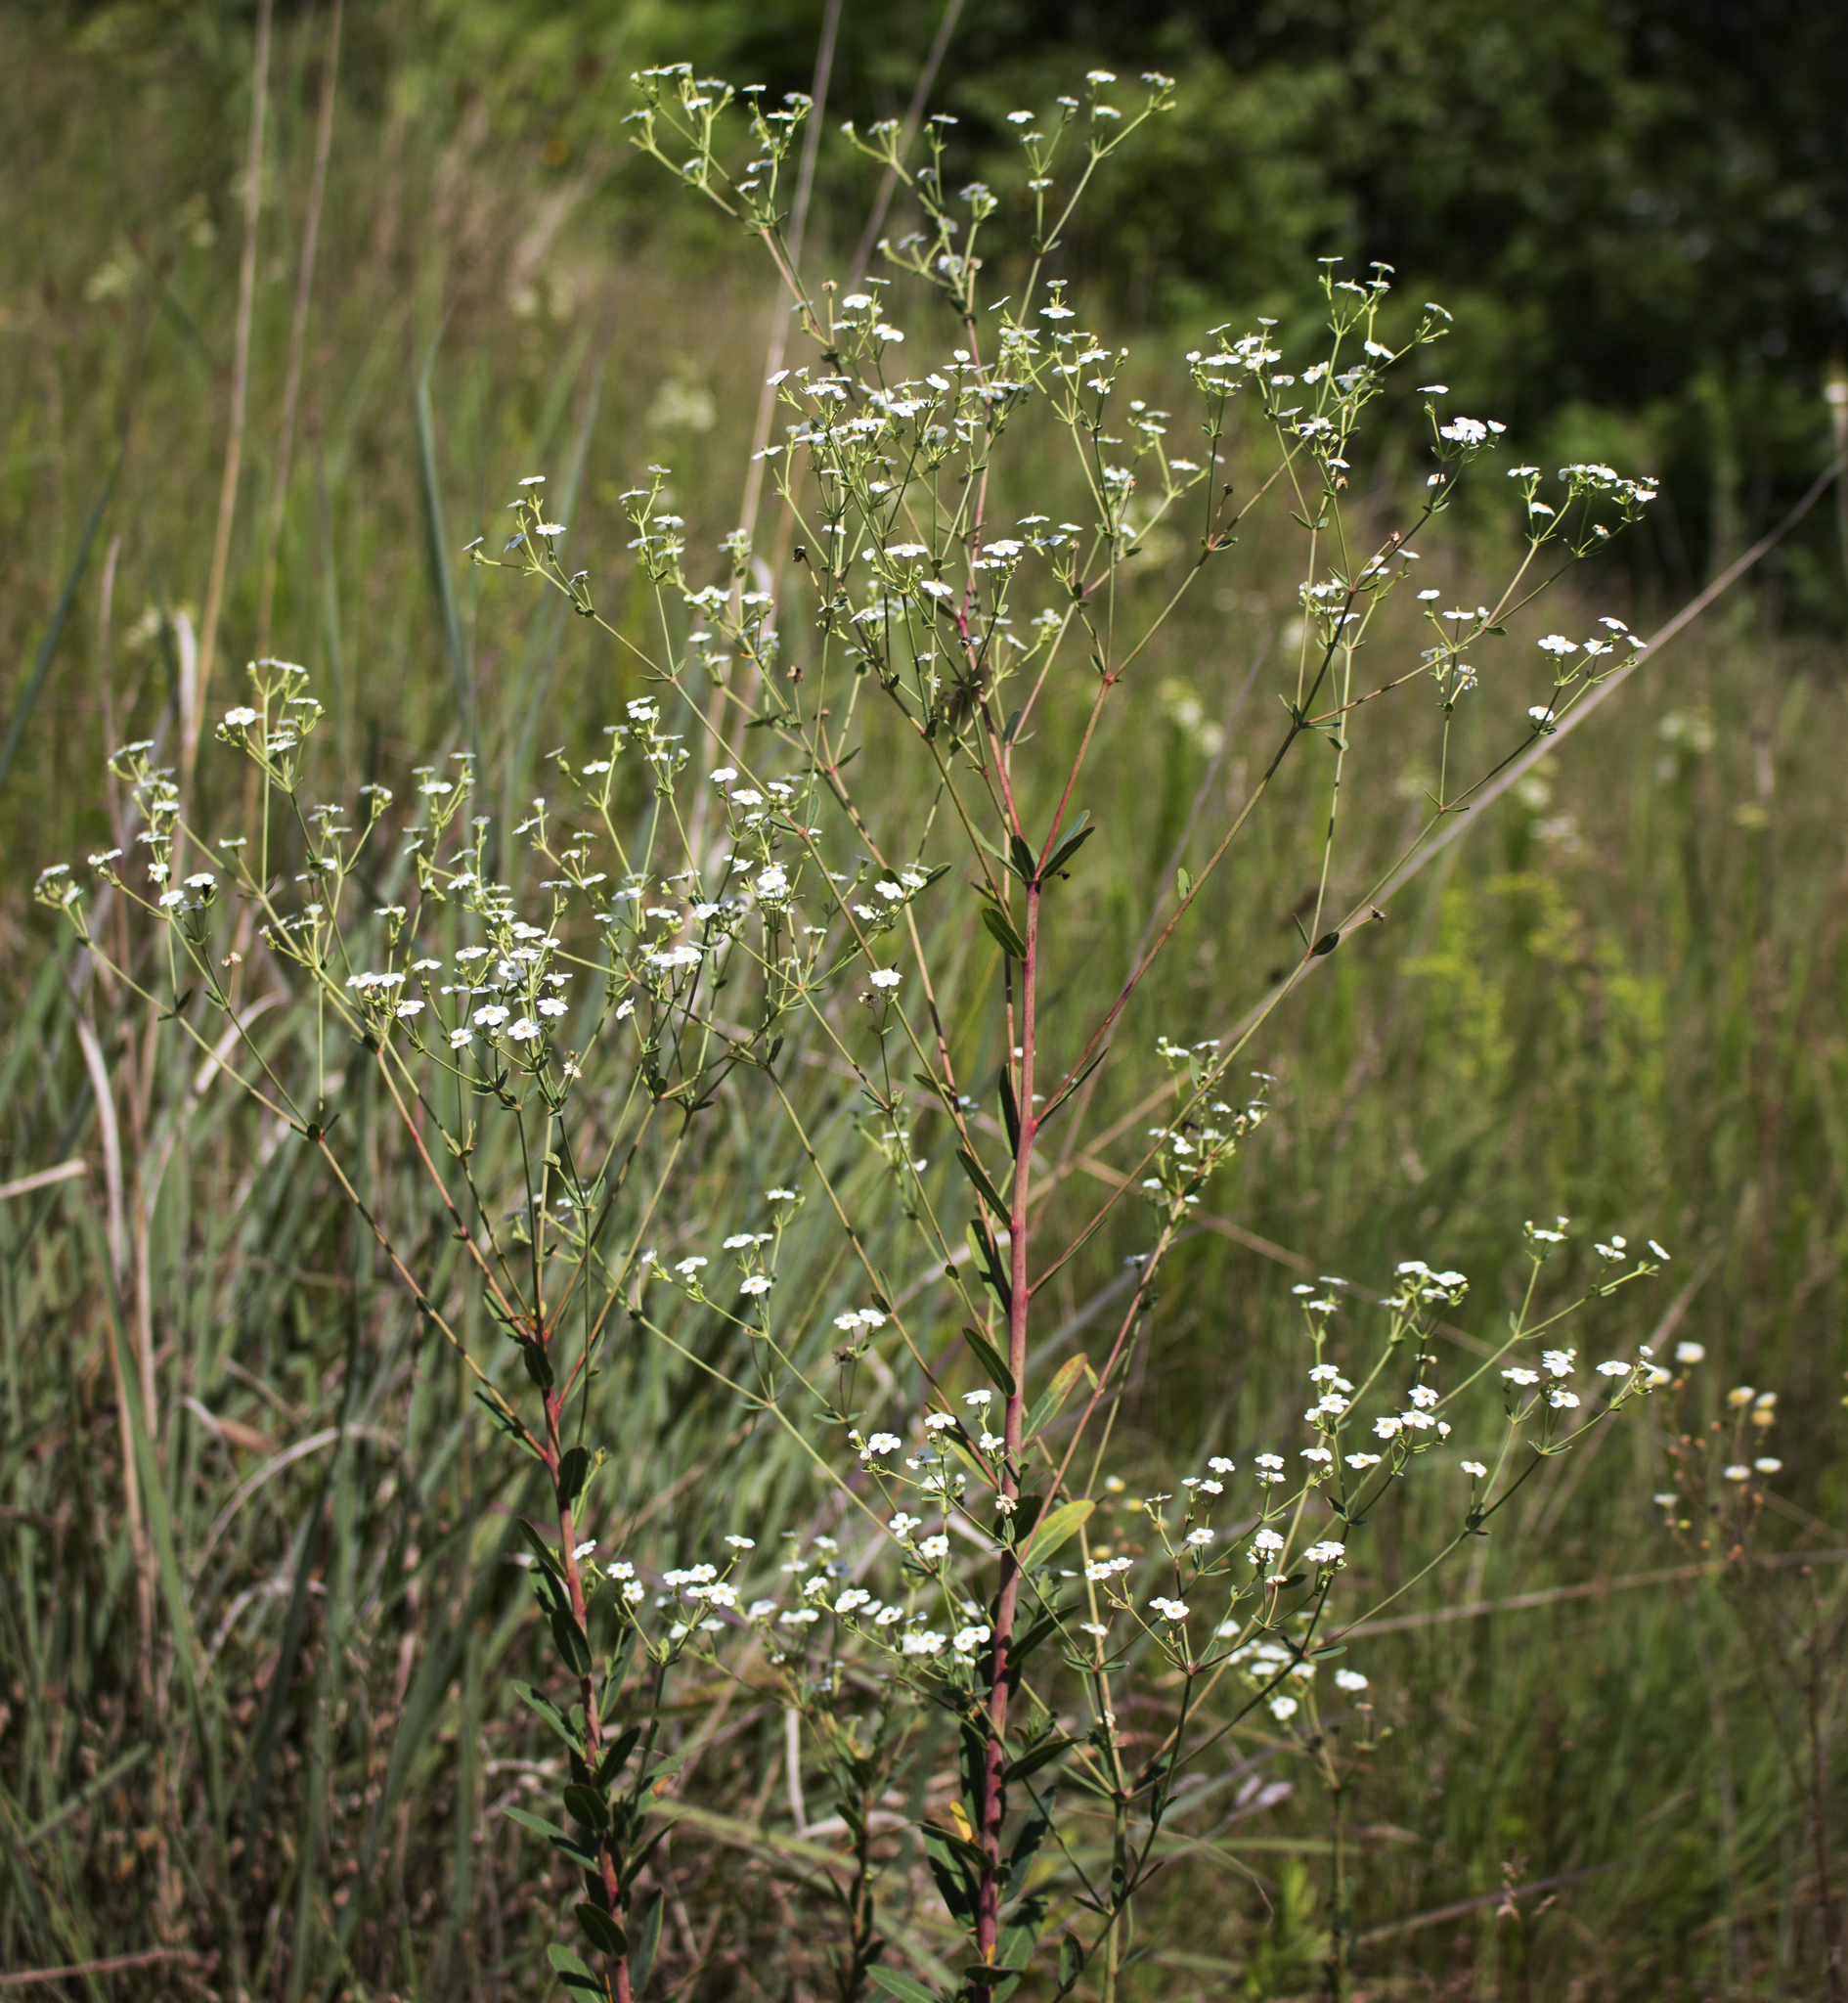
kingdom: Plantae
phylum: Tracheophyta
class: Magnoliopsida
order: Malpighiales
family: Euphorbiaceae
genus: Euphorbia
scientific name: Euphorbia corollata
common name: Flowering spurge
